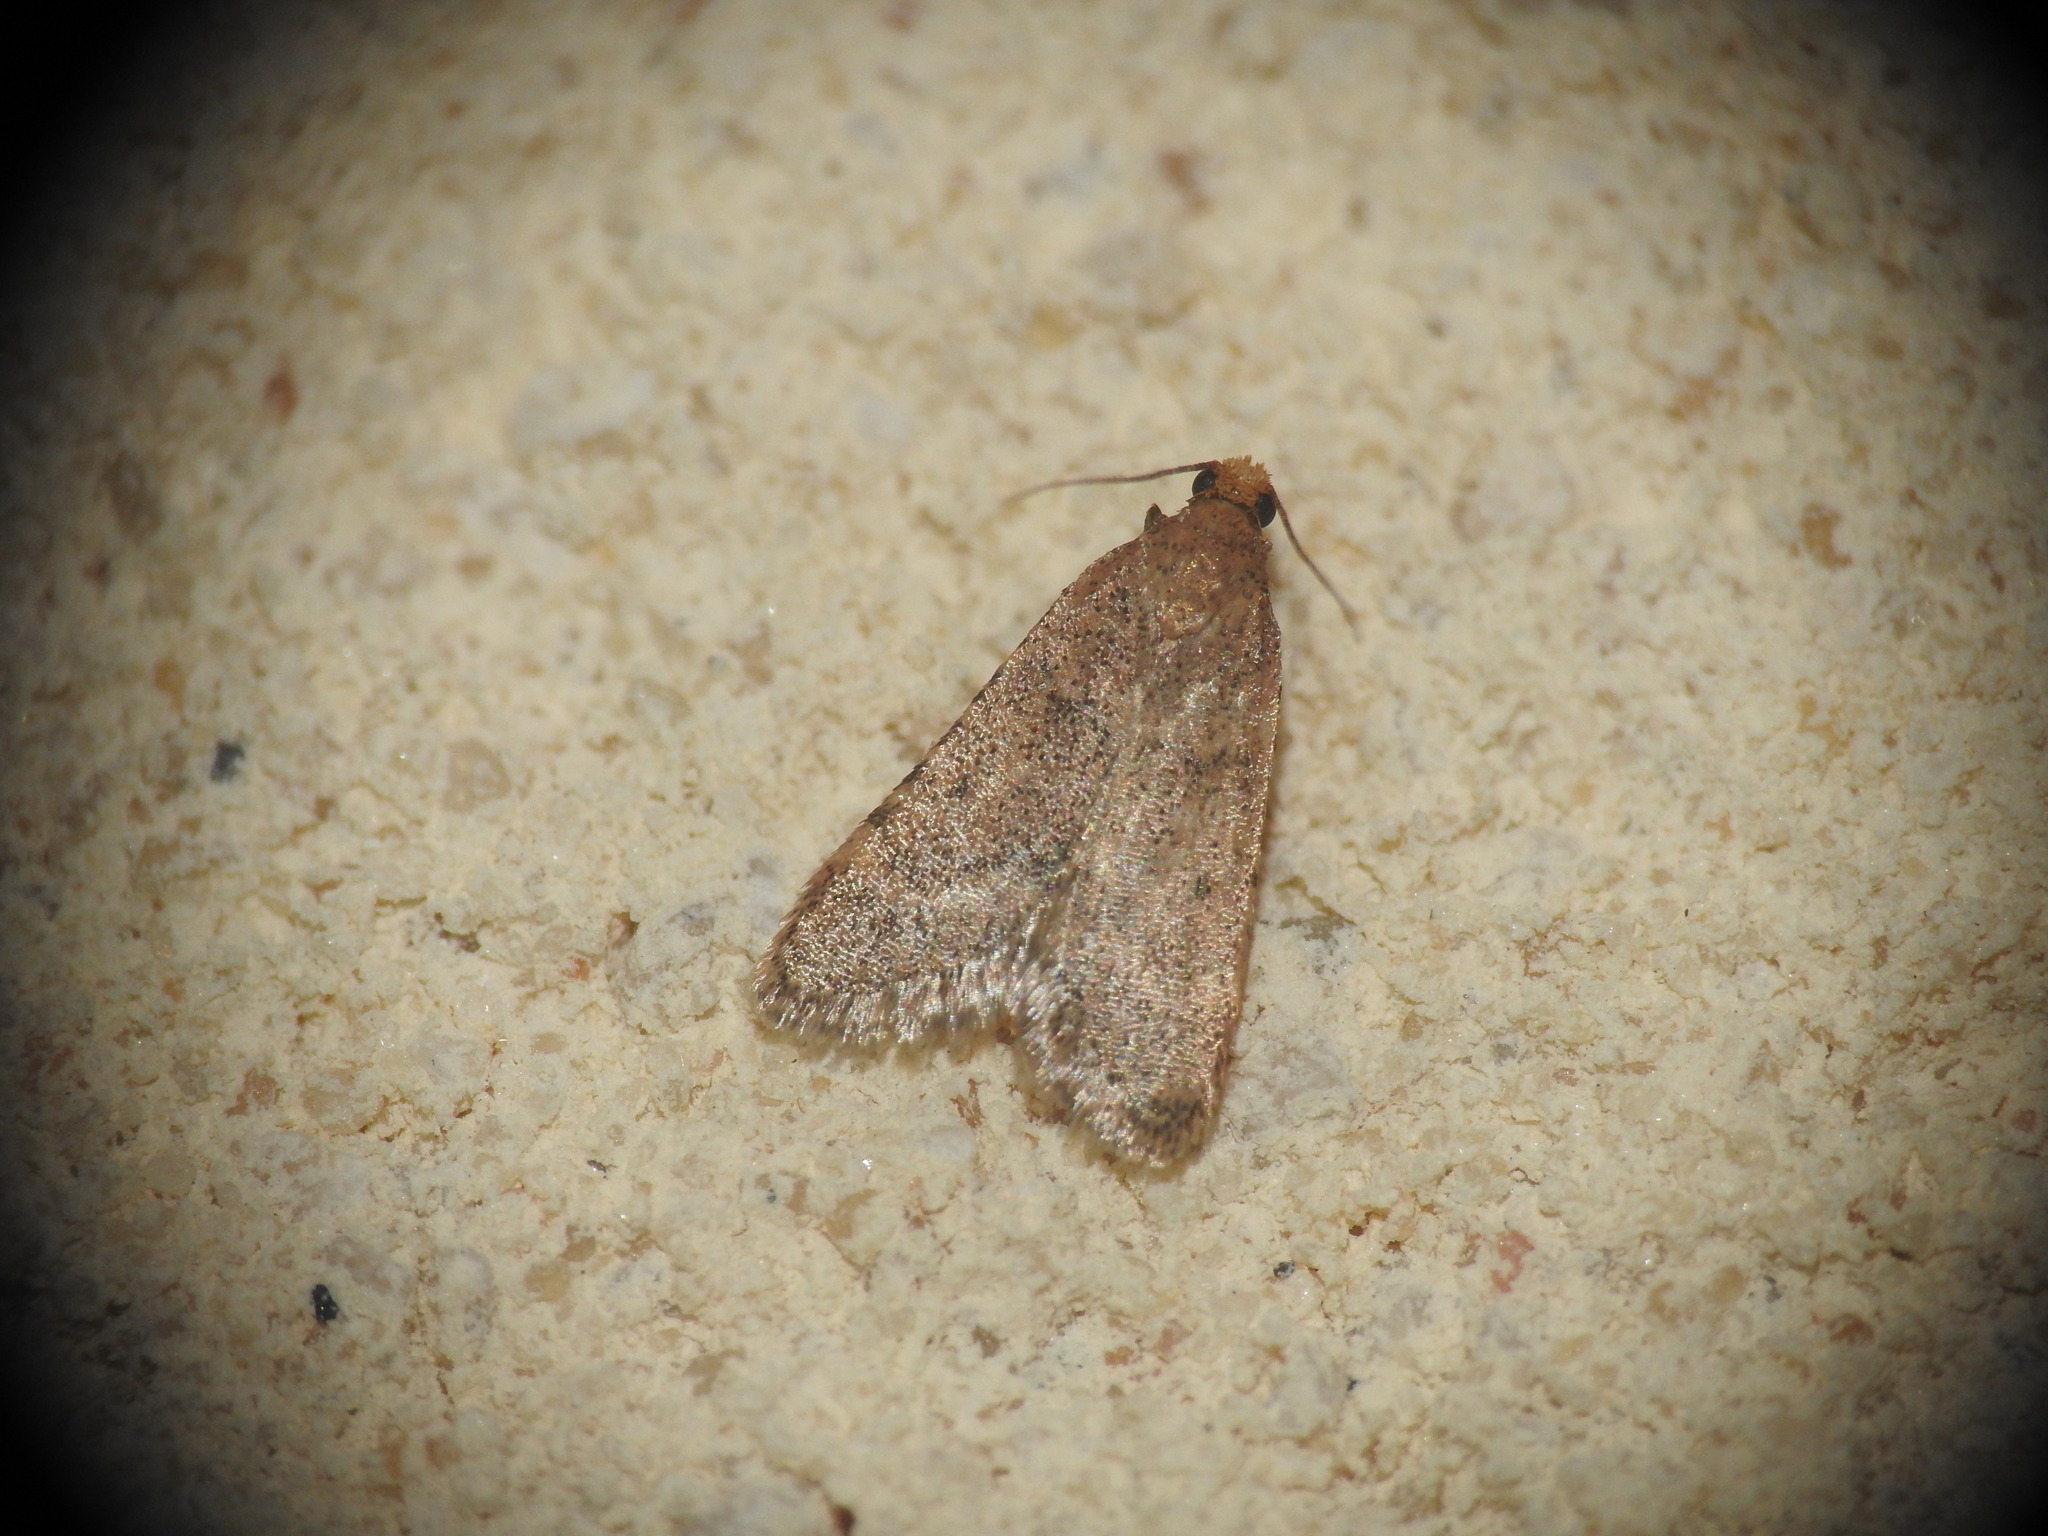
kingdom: Animalia
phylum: Arthropoda
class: Insecta
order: Lepidoptera
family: Pyralidae
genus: Bostra
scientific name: Bostra obsoletalis
